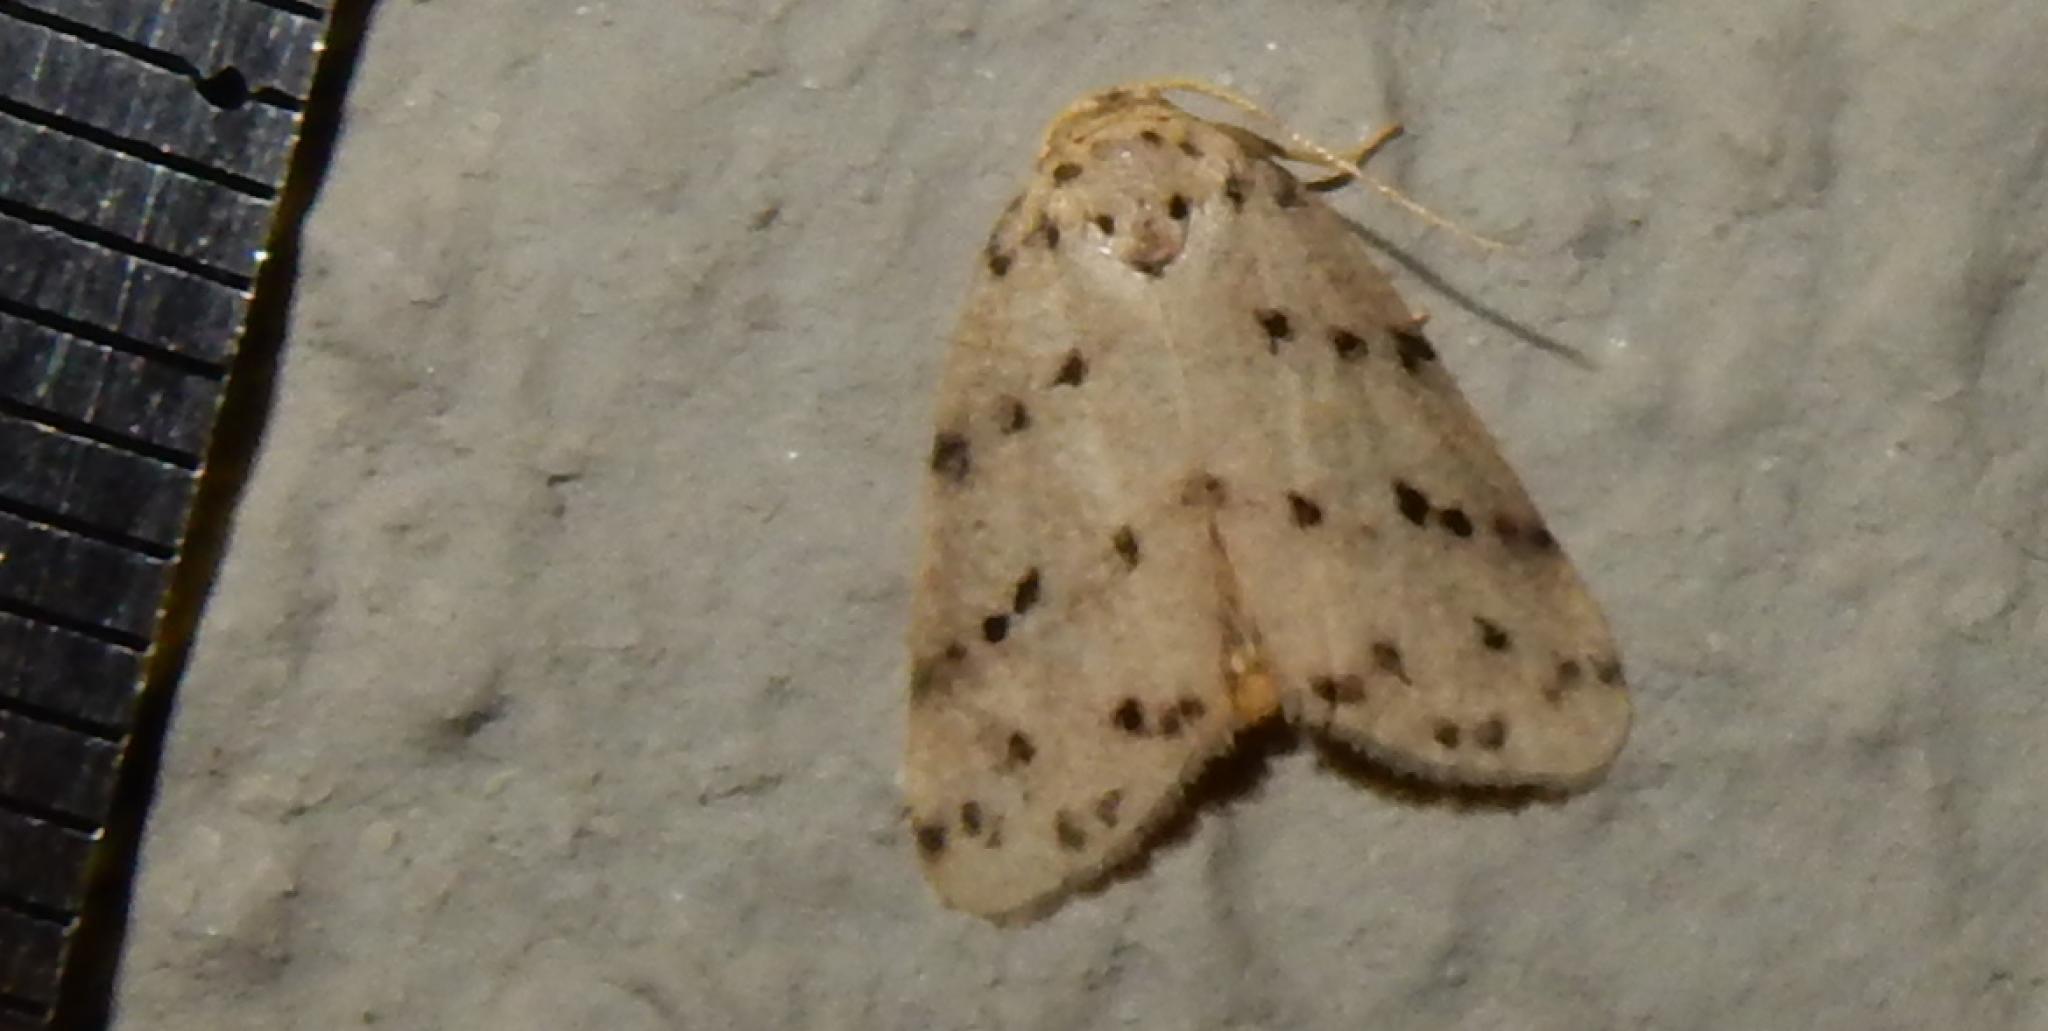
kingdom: Animalia
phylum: Arthropoda
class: Insecta
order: Lepidoptera
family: Erebidae
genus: Eugoa
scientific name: Eugoa africana
